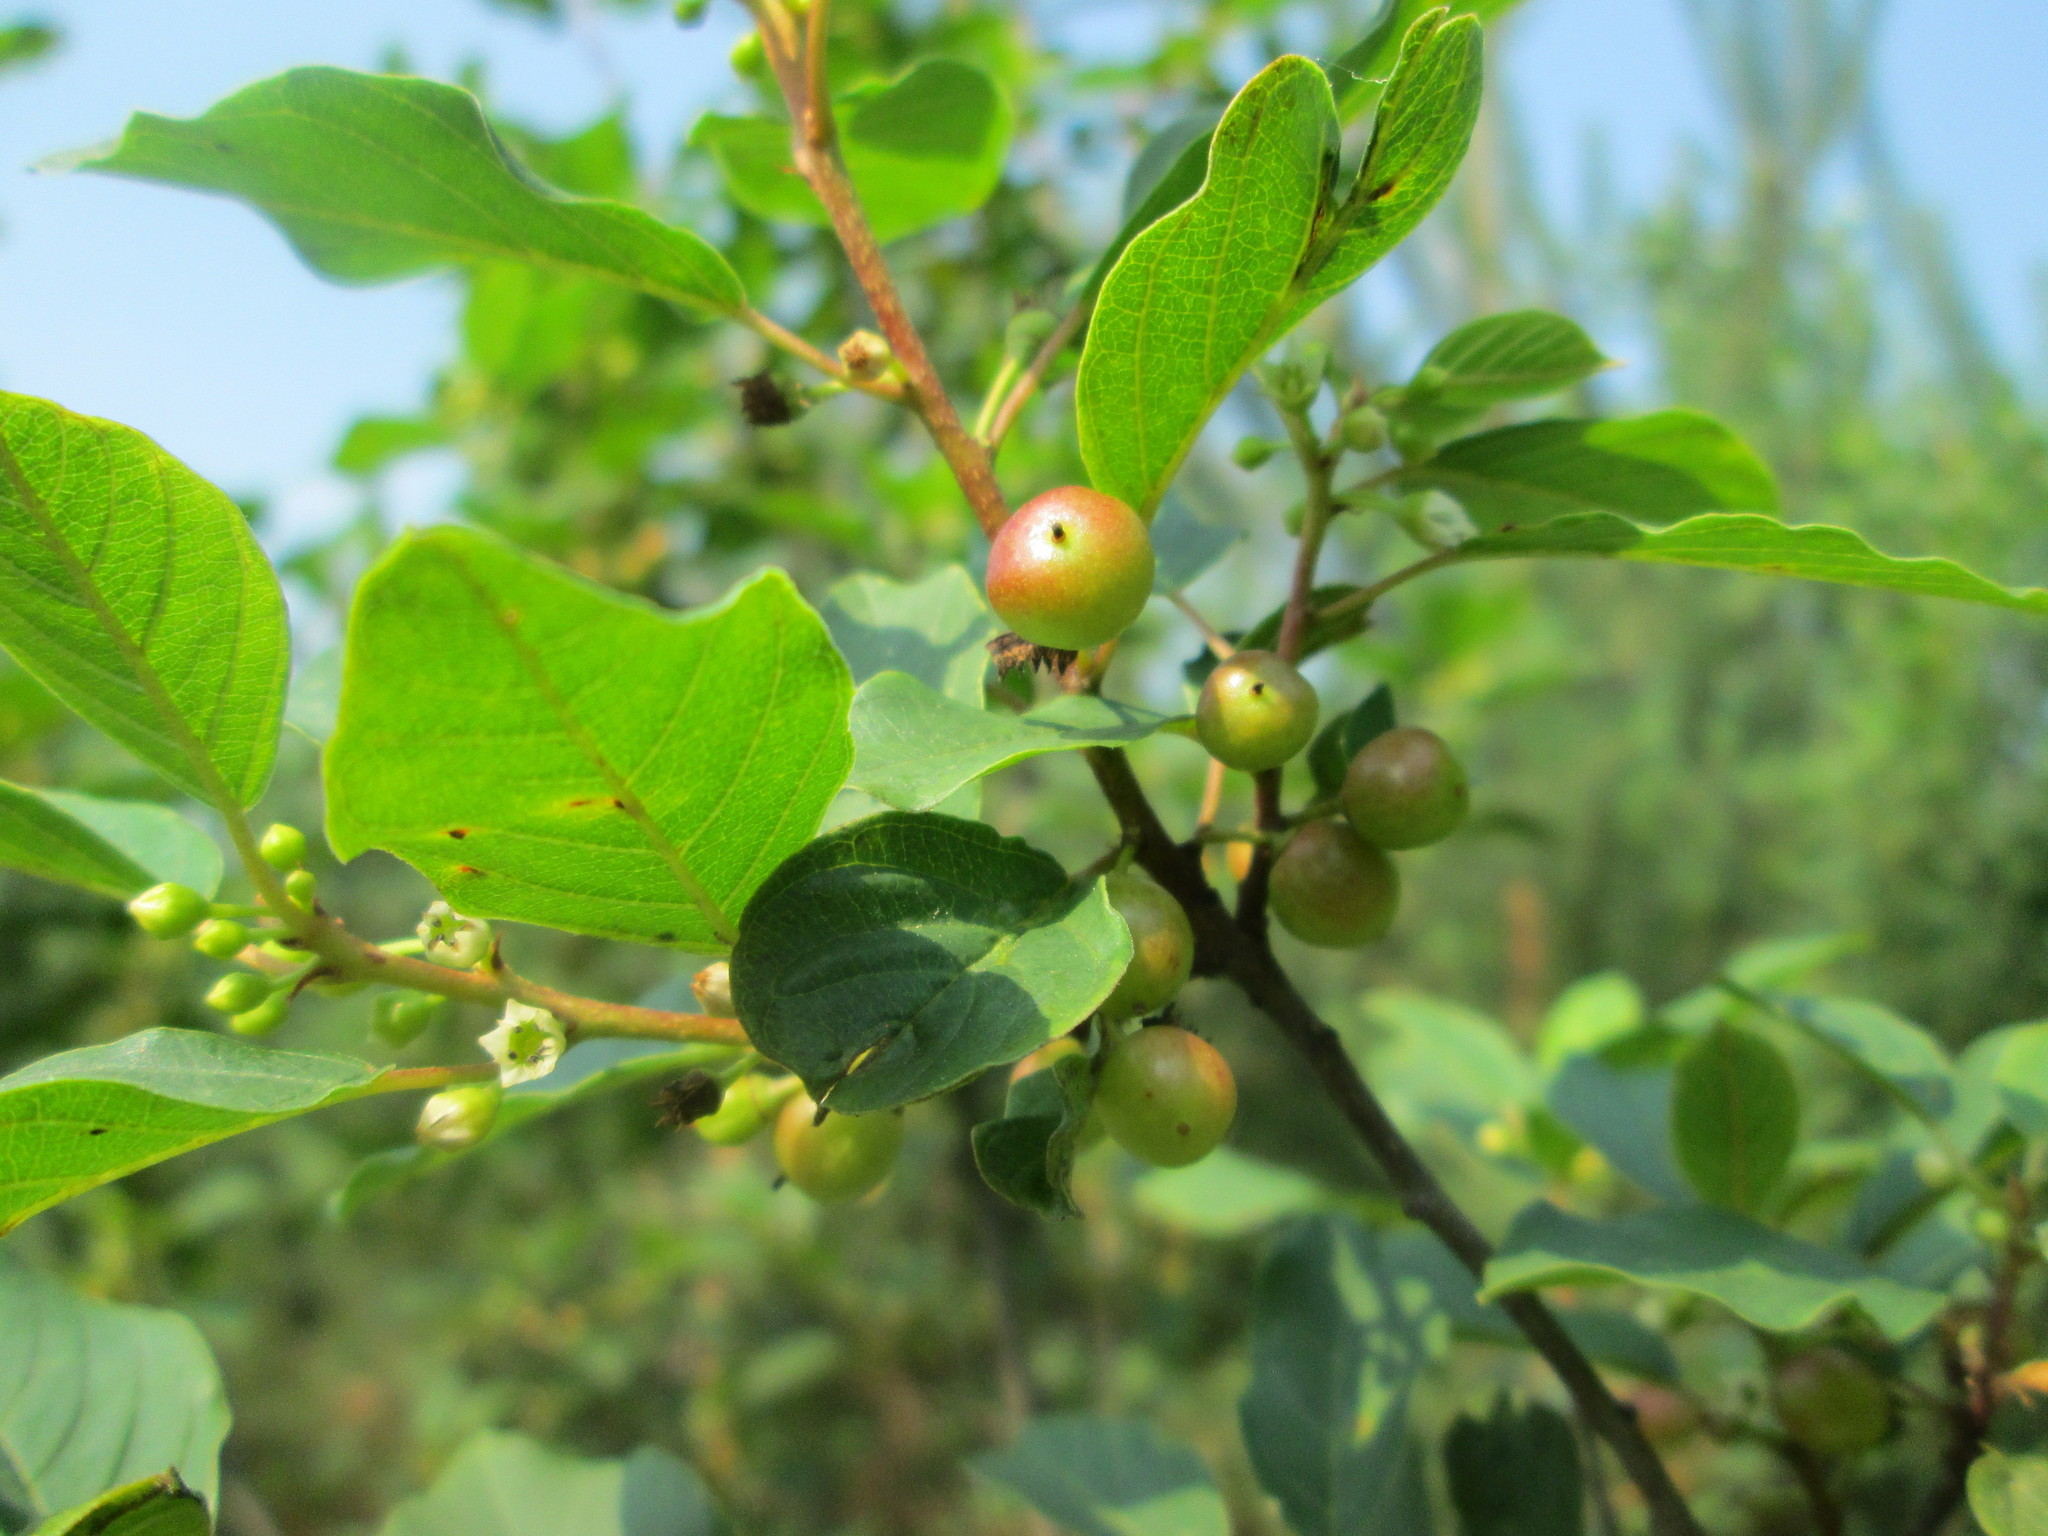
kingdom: Plantae
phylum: Tracheophyta
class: Magnoliopsida
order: Rosales
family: Rhamnaceae
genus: Frangula
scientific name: Frangula alnus
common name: Alder buckthorn
